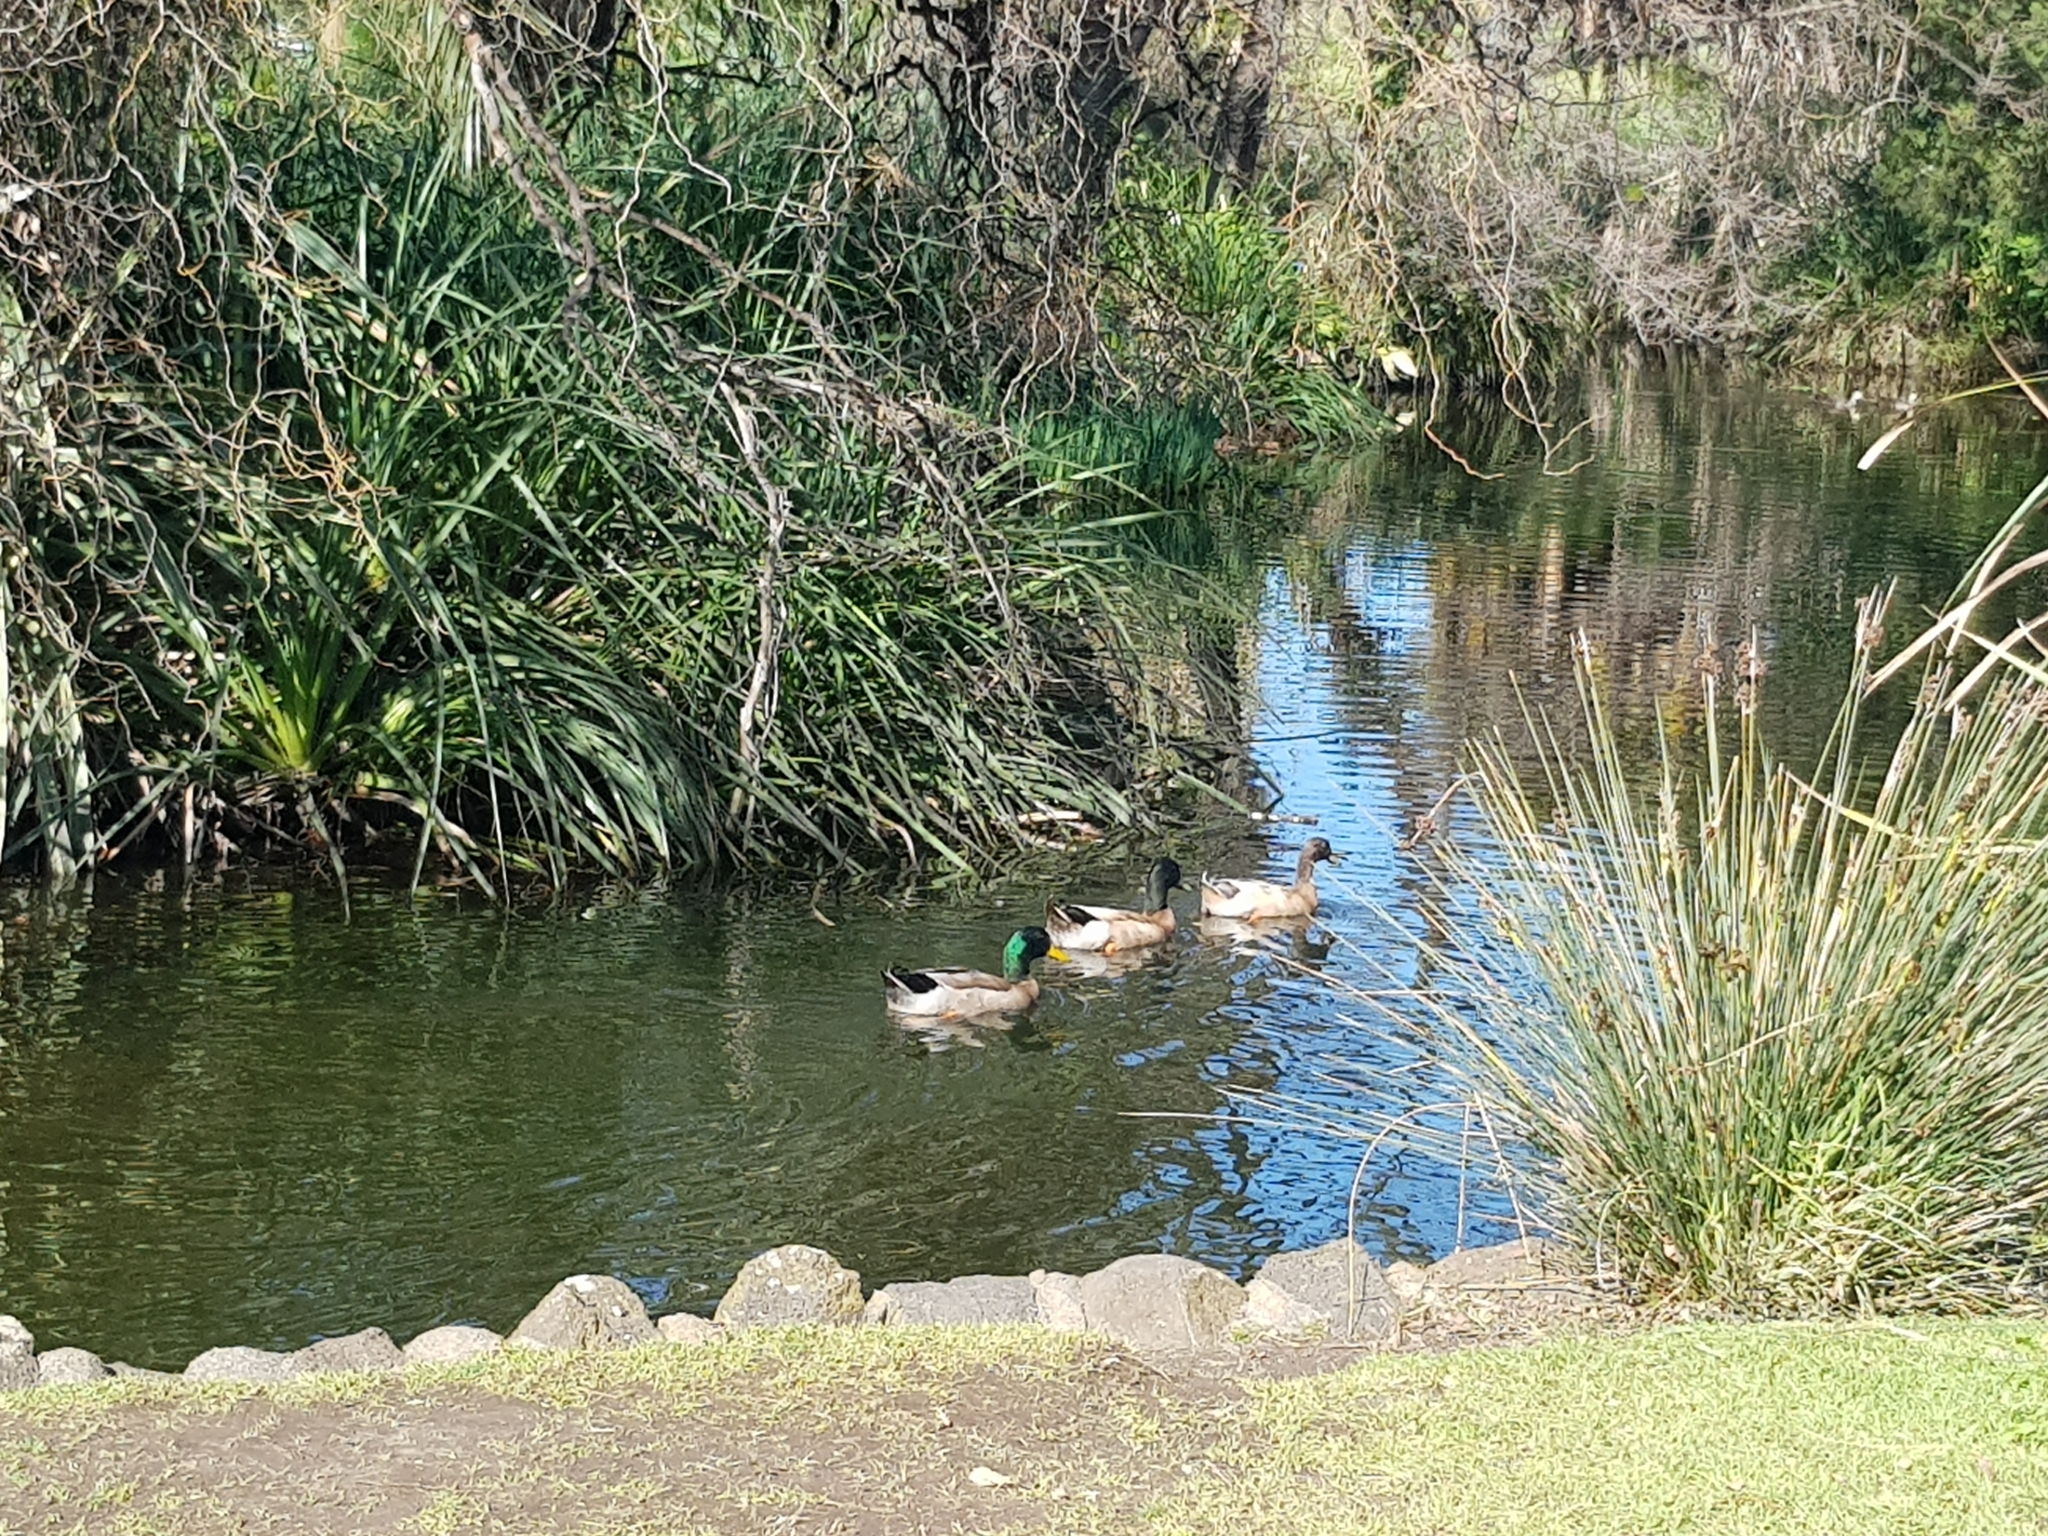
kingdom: Animalia
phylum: Chordata
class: Aves
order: Anseriformes
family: Anatidae
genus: Anas
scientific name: Anas platyrhynchos
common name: Mallard
